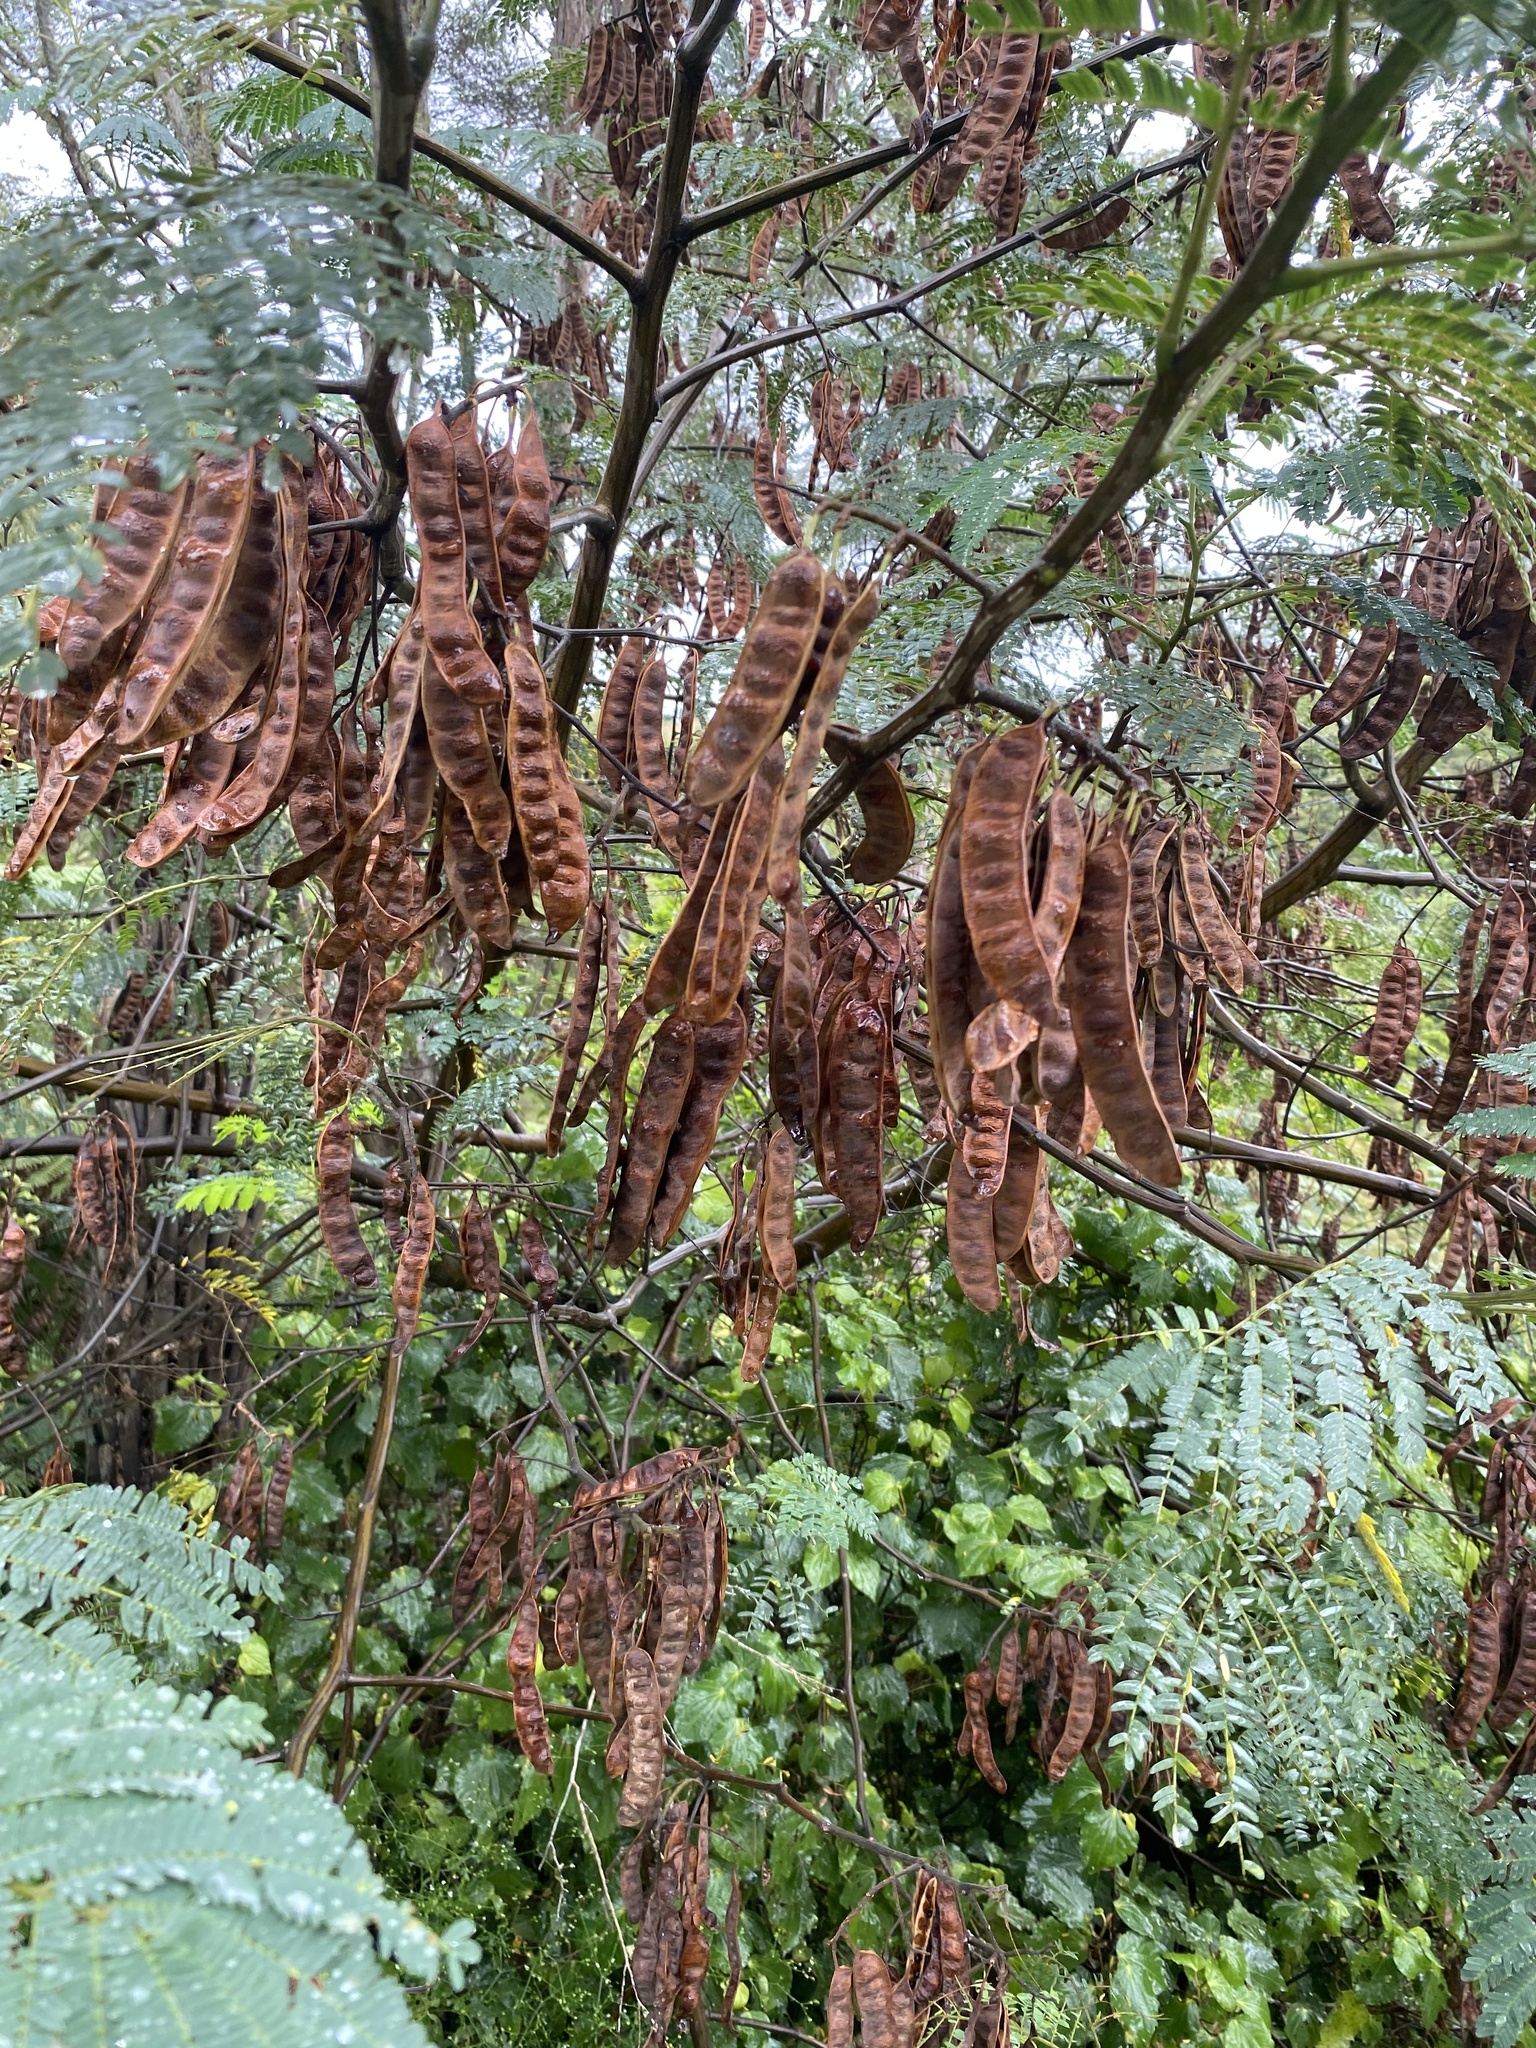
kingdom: Plantae
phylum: Tracheophyta
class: Magnoliopsida
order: Fabales
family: Fabaceae
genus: Paraserianthes
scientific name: Paraserianthes lophantha
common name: Plume albizia
